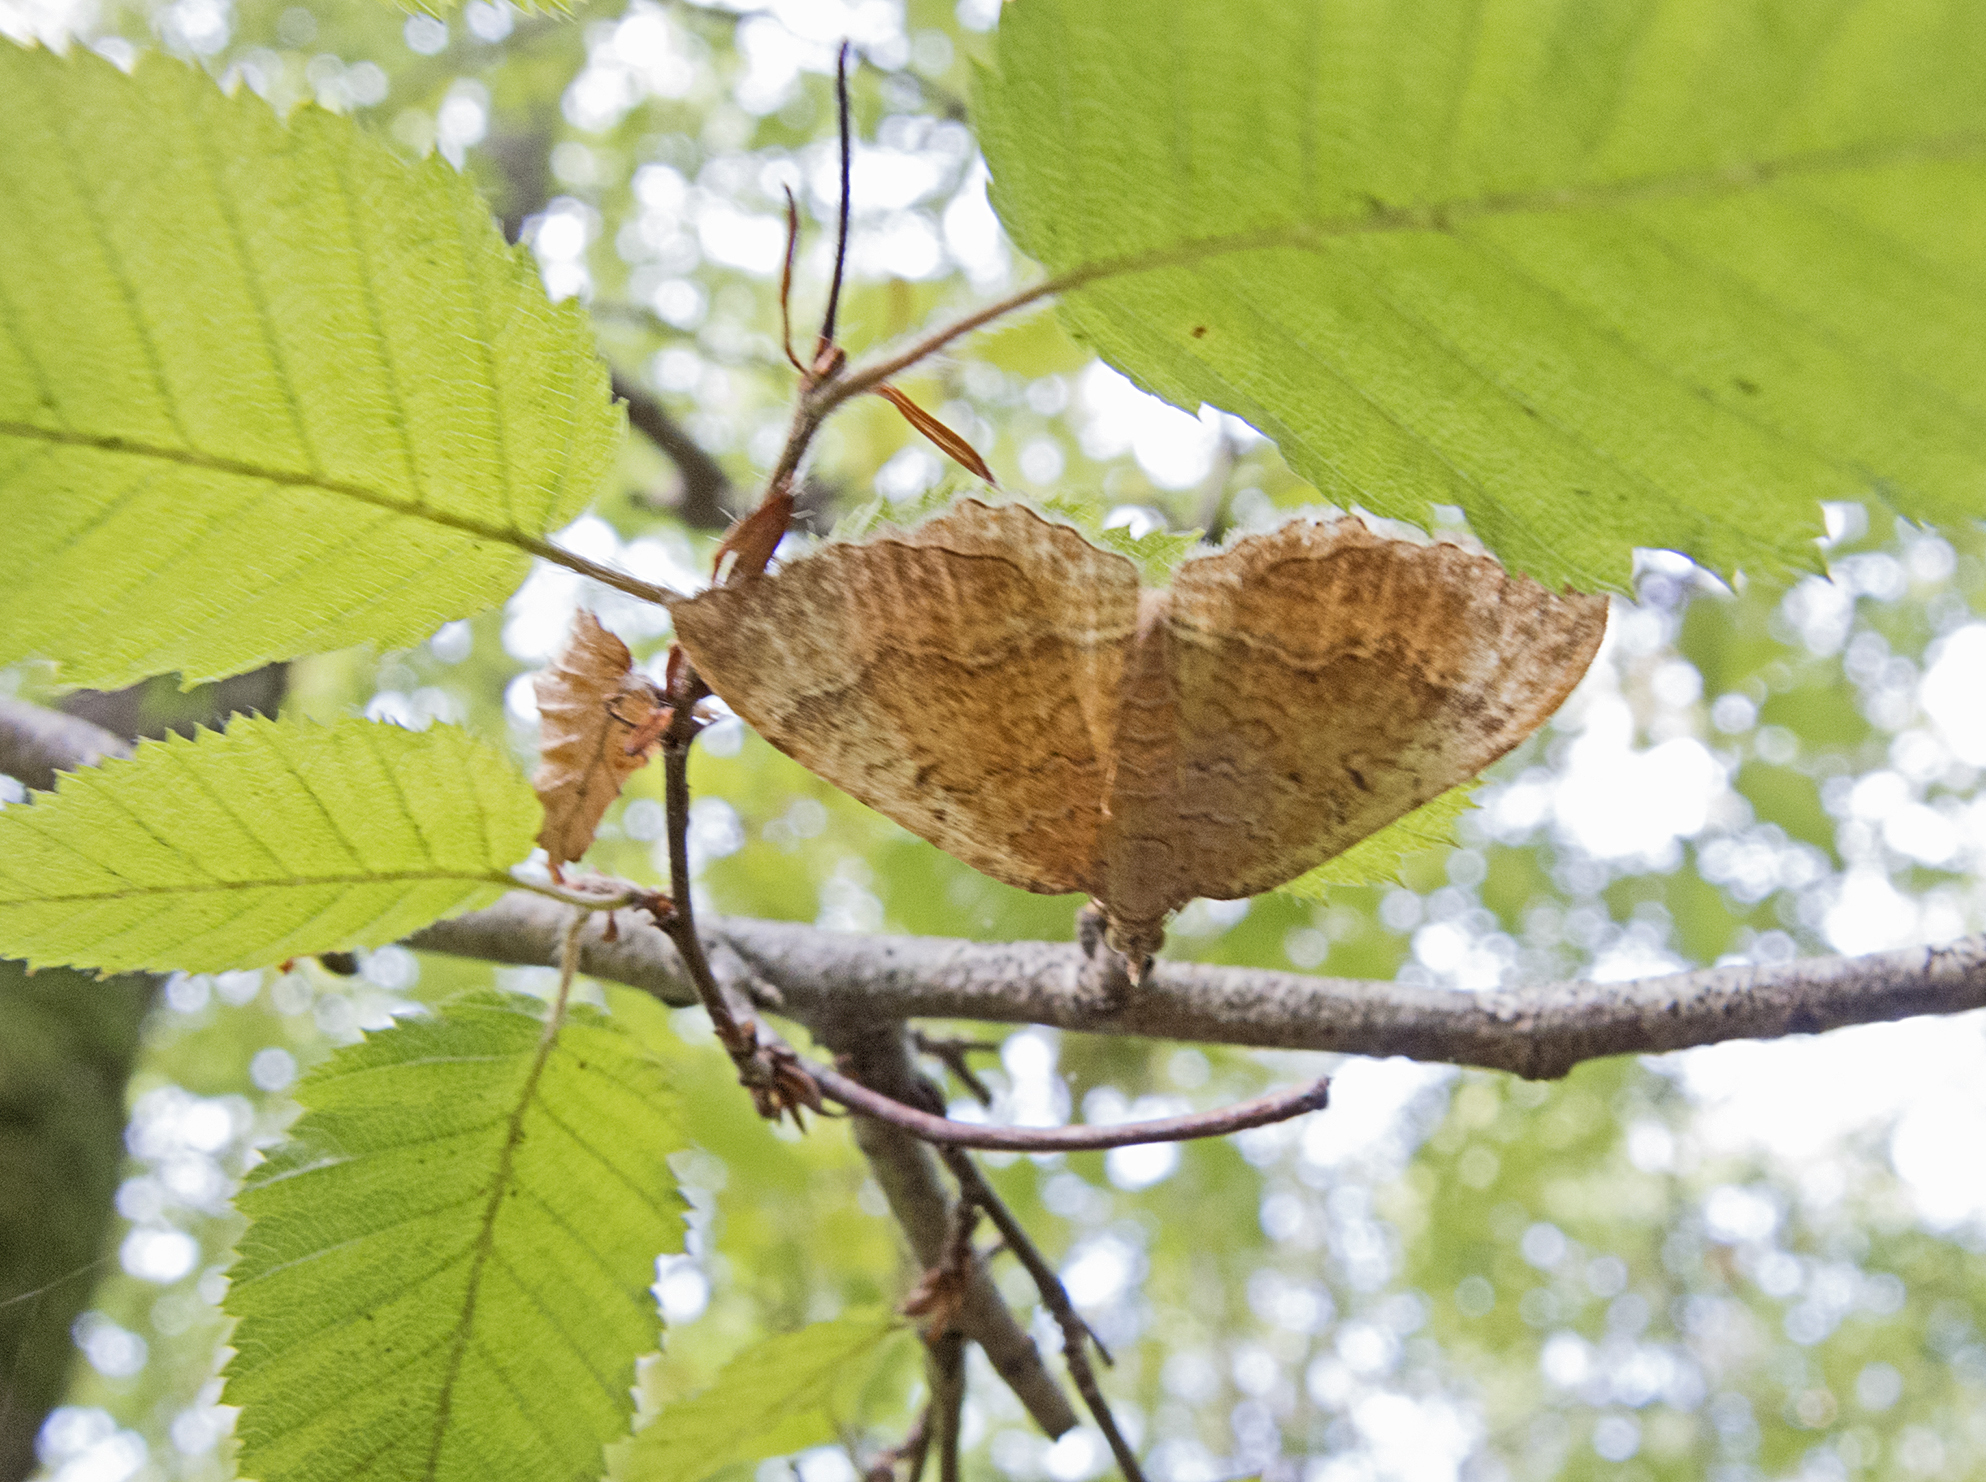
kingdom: Animalia
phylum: Arthropoda
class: Insecta
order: Lepidoptera
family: Geometridae
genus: Camptogramma
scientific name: Camptogramma bilineata
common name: Yellow shell
